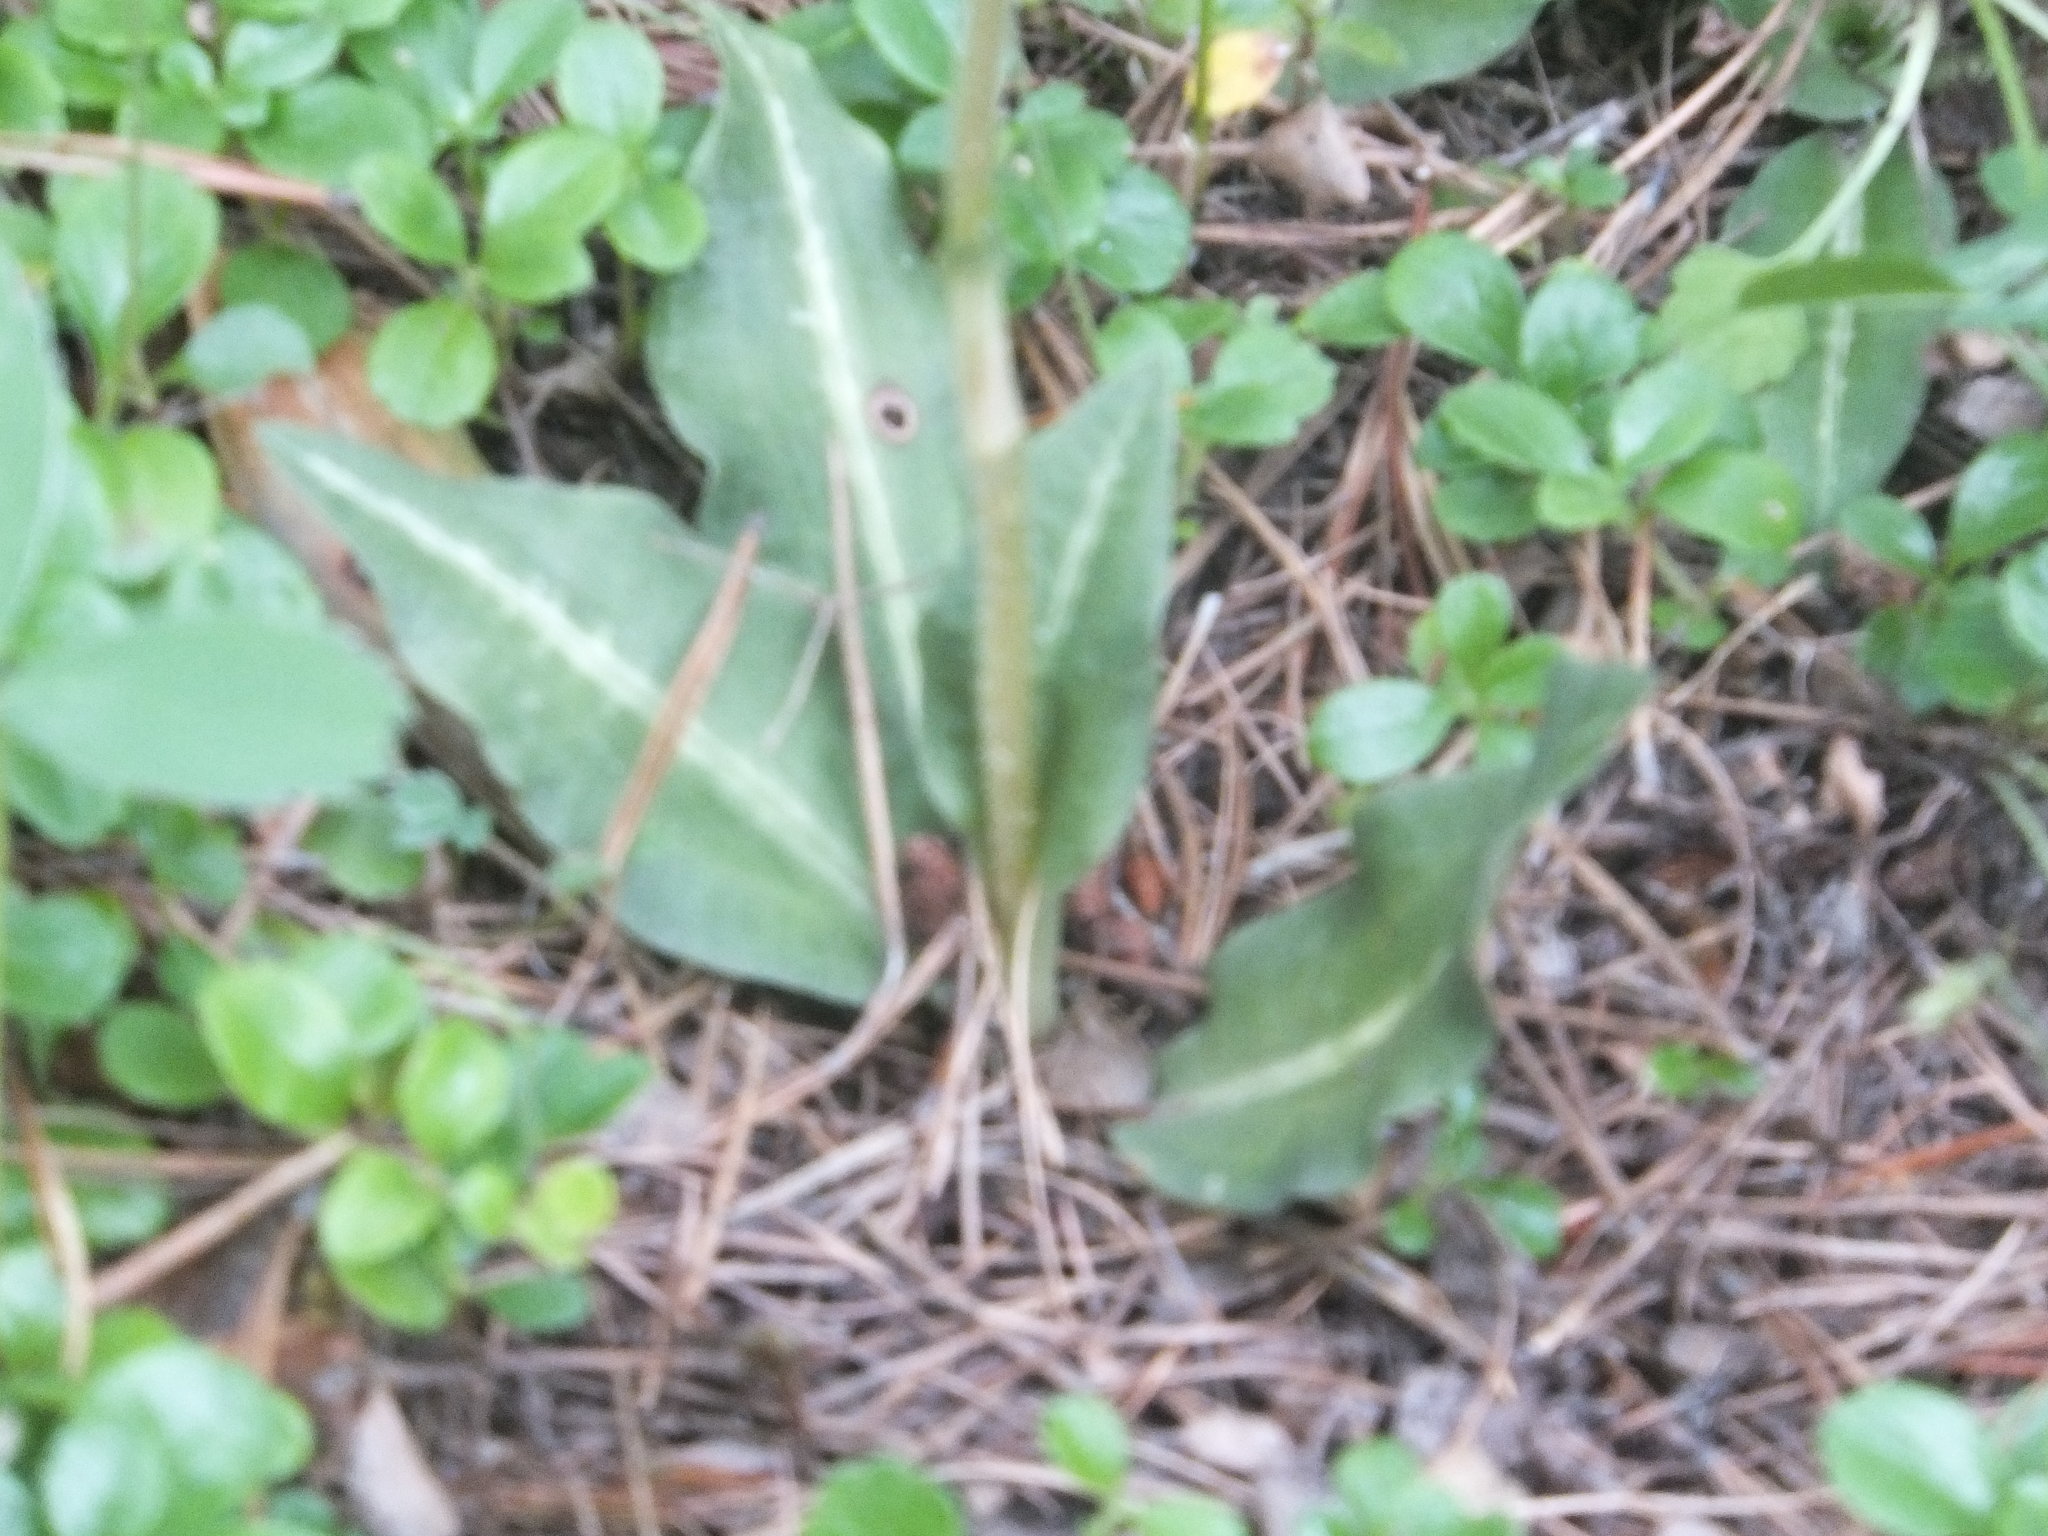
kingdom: Plantae
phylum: Tracheophyta
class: Liliopsida
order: Asparagales
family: Orchidaceae
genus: Goodyera
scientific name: Goodyera oblongifolia
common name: Giant rattlesnake-plantain
